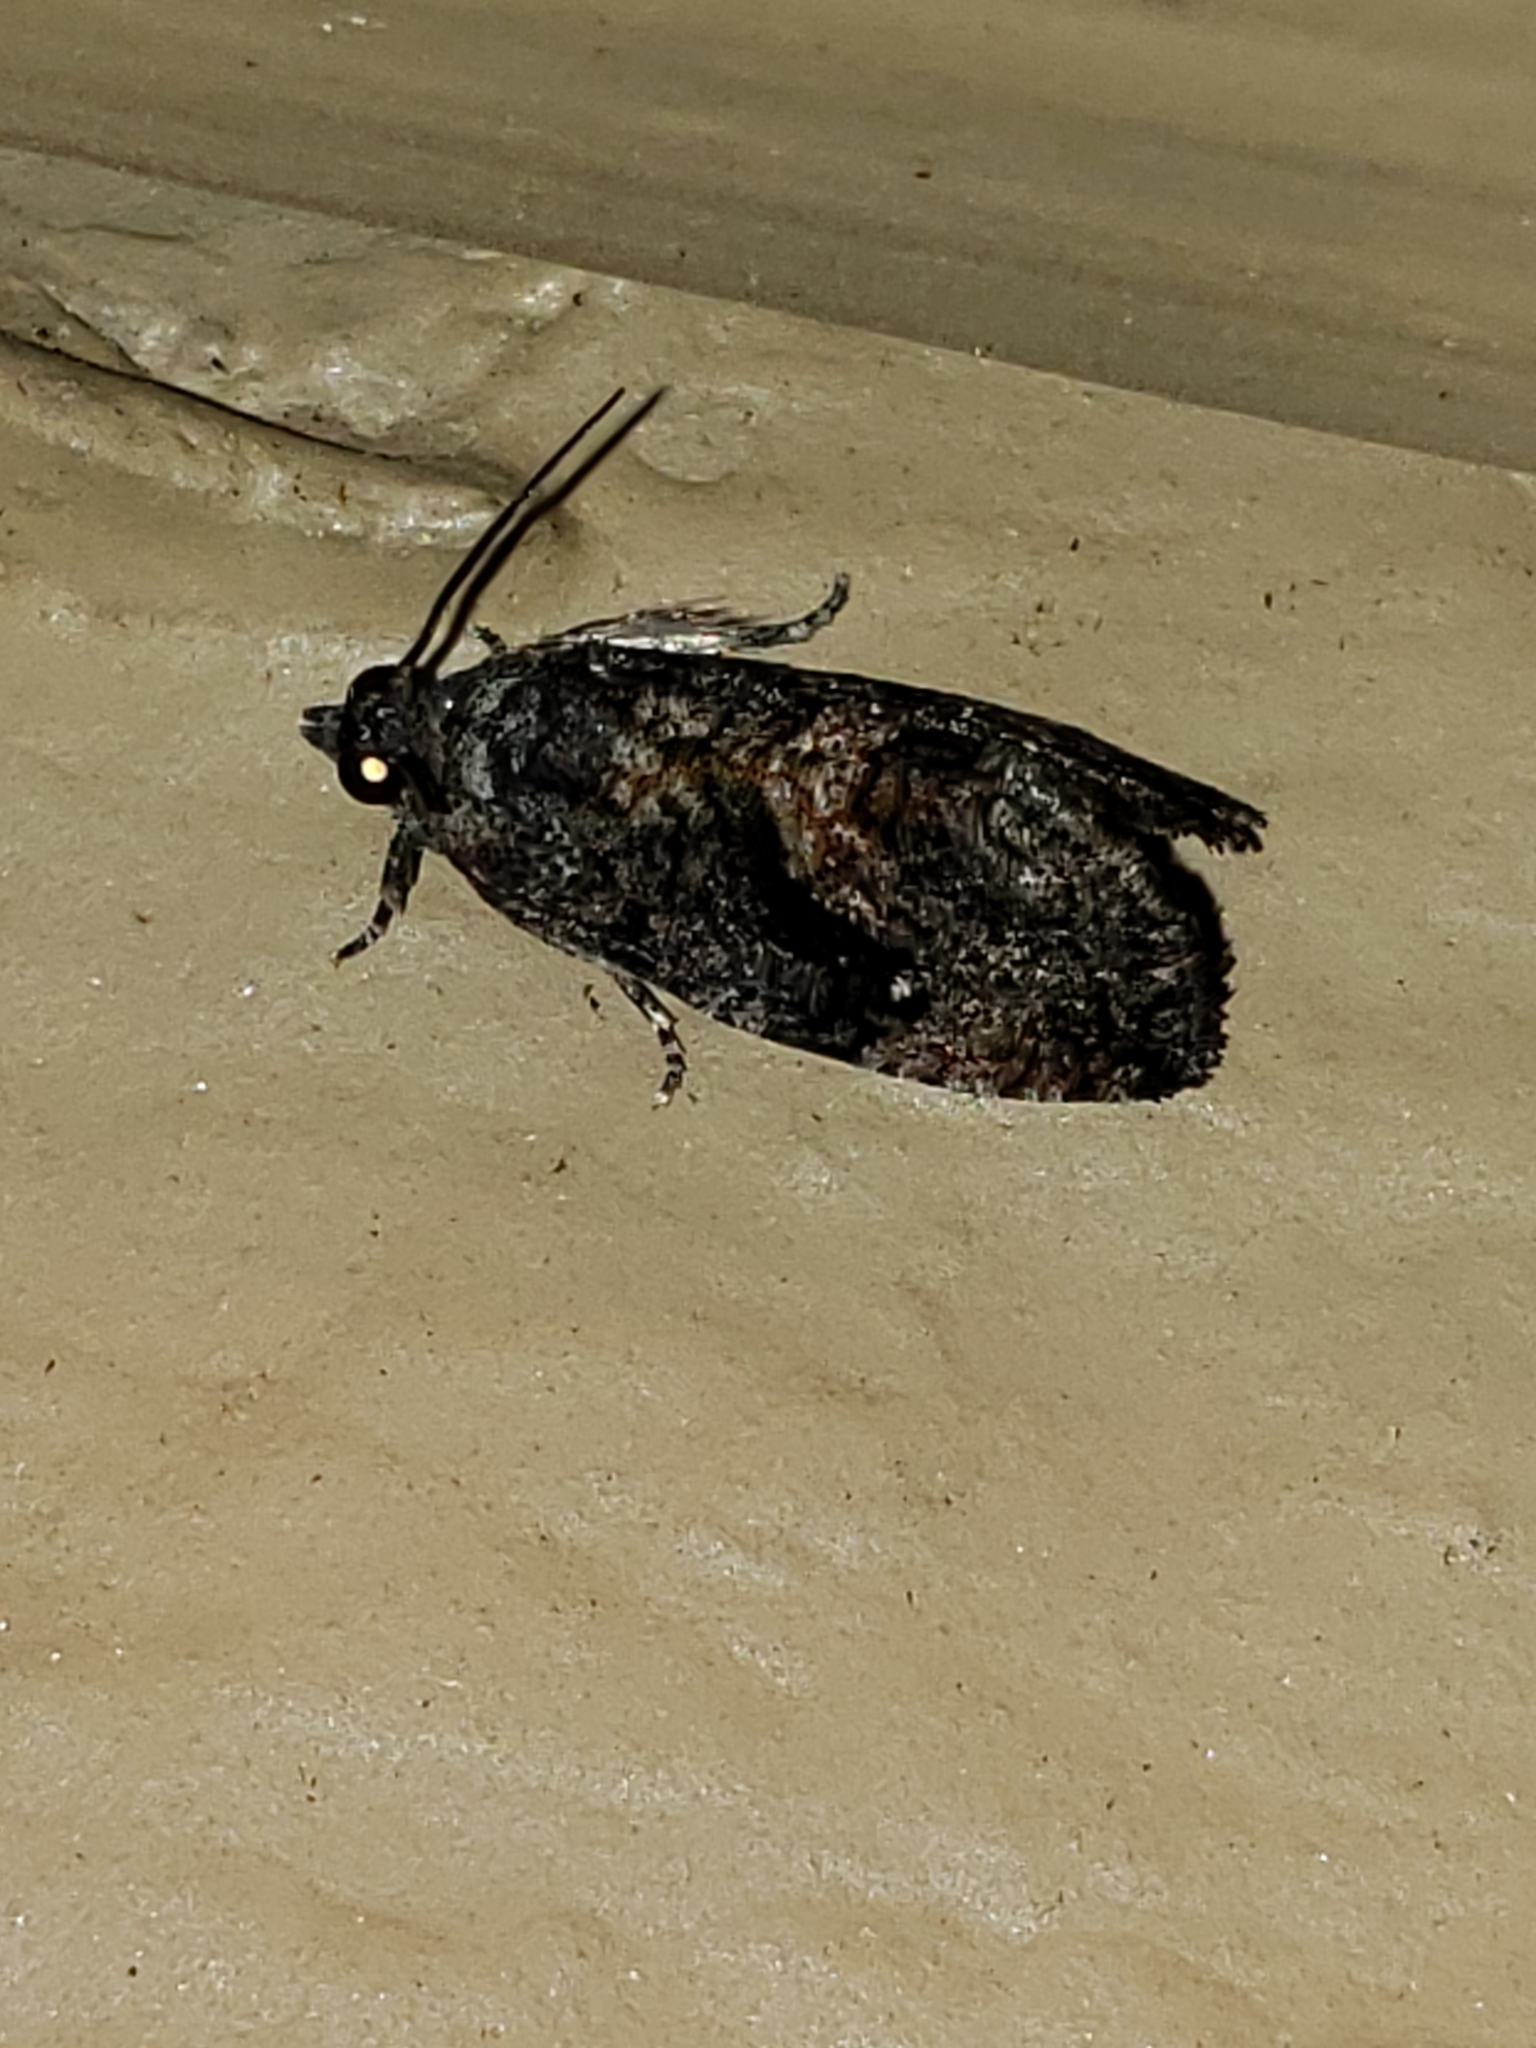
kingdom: Animalia
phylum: Arthropoda
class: Insecta
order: Lepidoptera
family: Tortricidae
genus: Gymnandrosoma
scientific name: Gymnandrosoma punctidiscanum
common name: Dotted ecdytolopha moth
